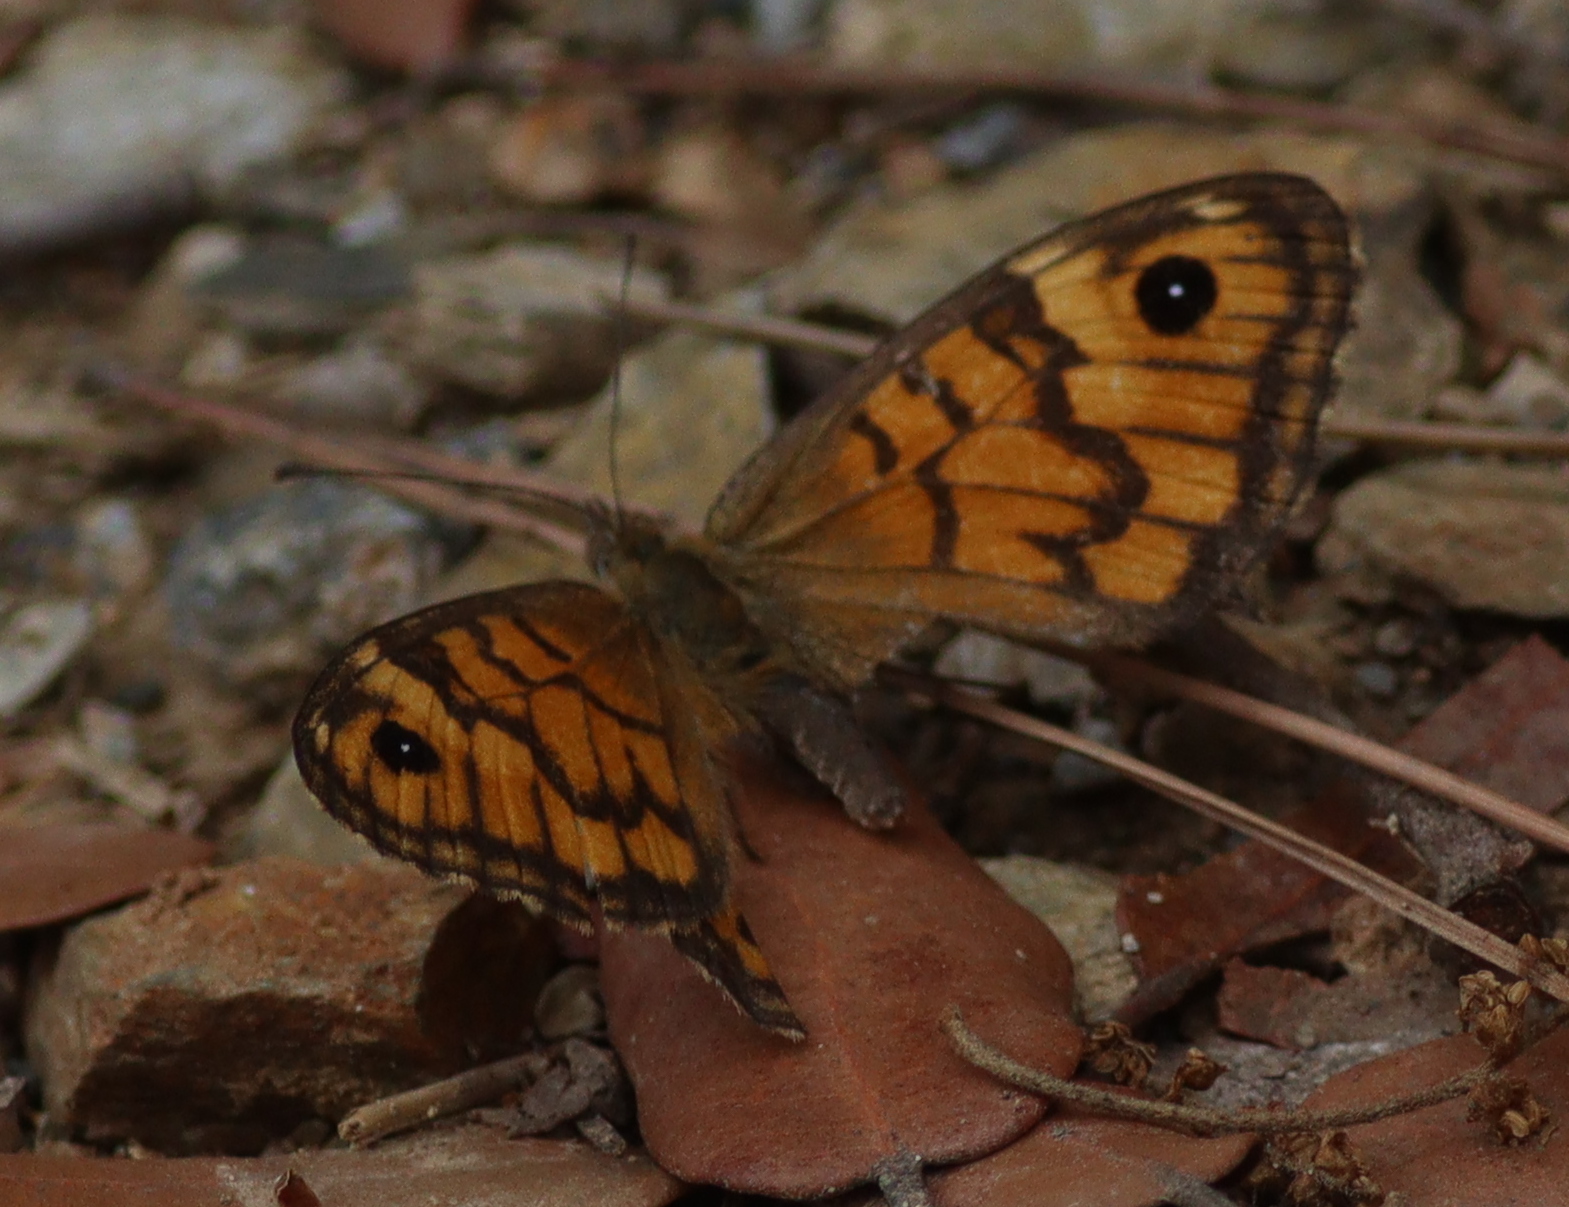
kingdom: Animalia
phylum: Arthropoda
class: Insecta
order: Lepidoptera
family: Nymphalidae
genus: Pararge
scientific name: Pararge Lasiommata megera
